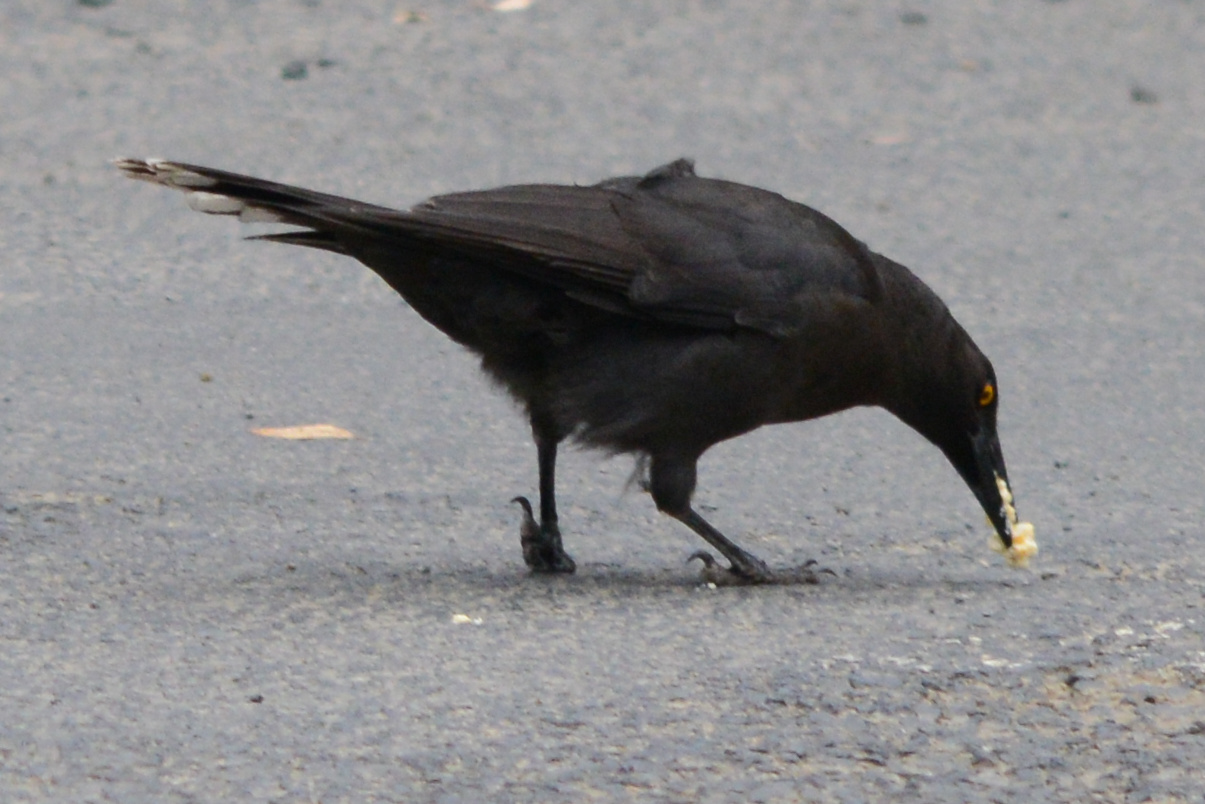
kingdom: Animalia
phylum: Chordata
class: Aves
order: Passeriformes
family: Cracticidae
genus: Strepera
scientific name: Strepera fuliginosa
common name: Black currawong
